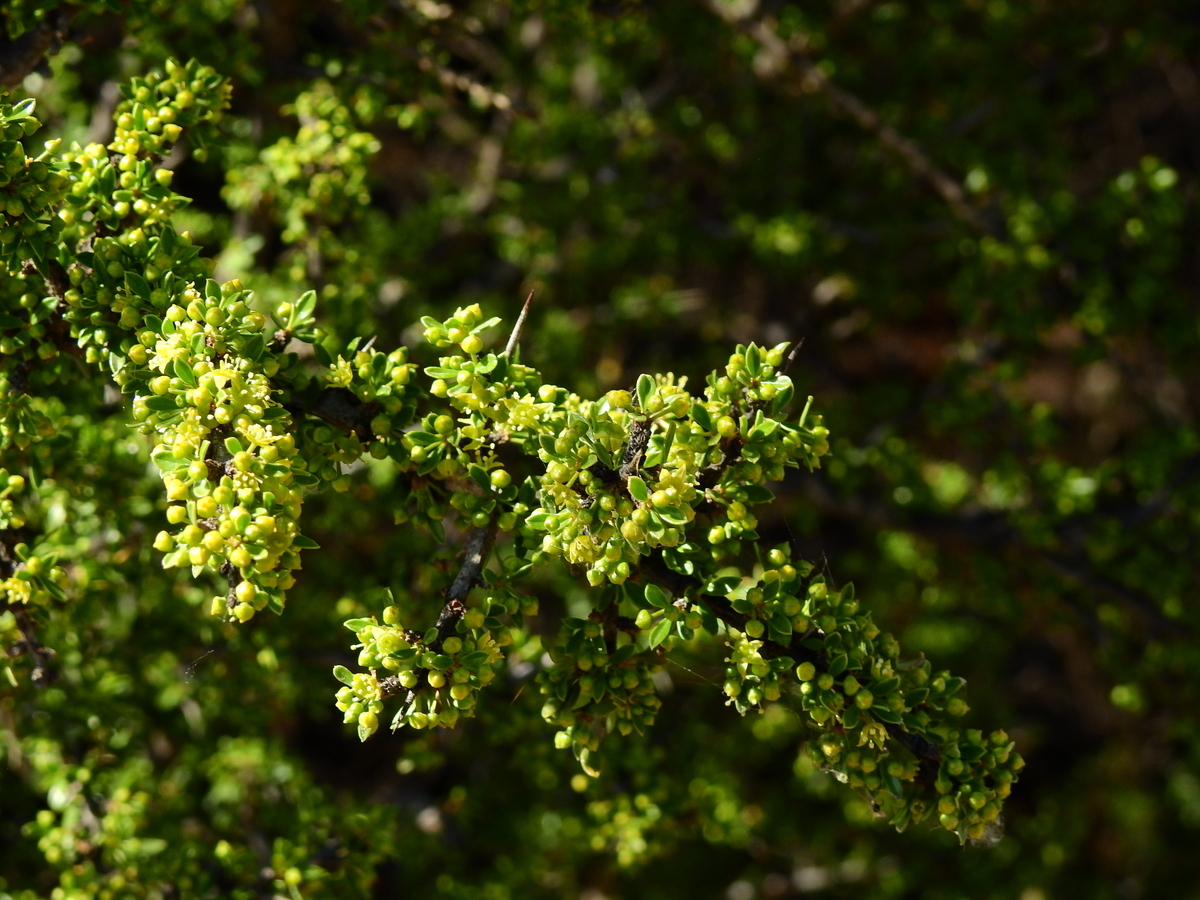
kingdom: Plantae
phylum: Tracheophyta
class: Magnoliopsida
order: Rosales
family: Rhamnaceae
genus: Condalia
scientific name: Condalia microphylla
